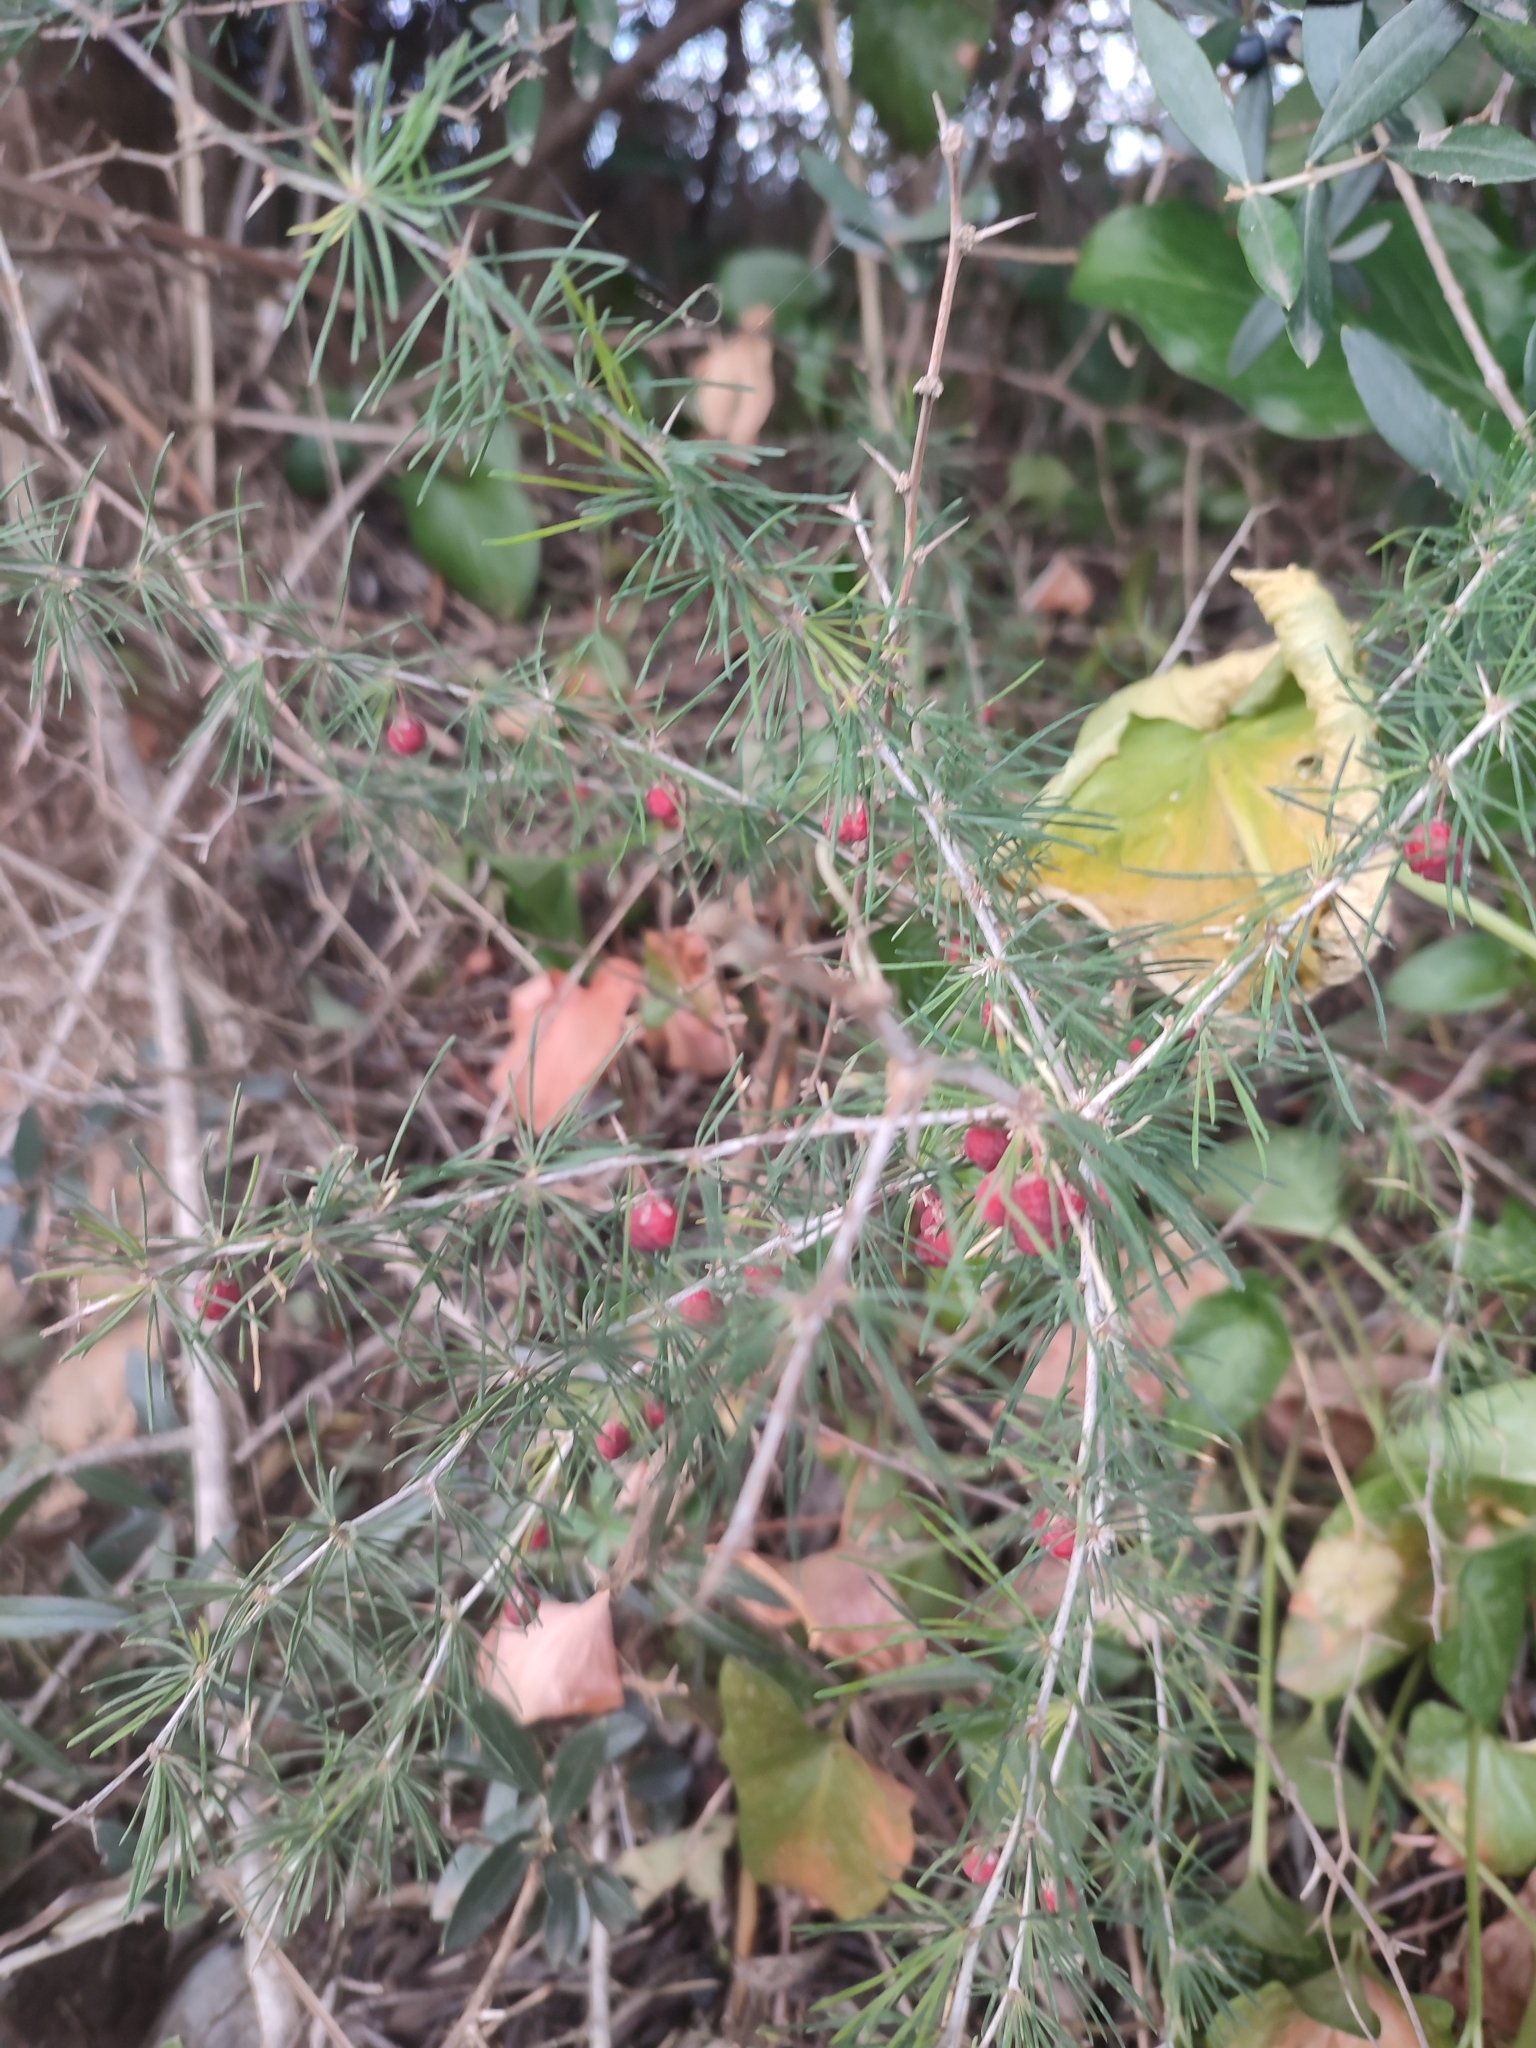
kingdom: Plantae
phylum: Tracheophyta
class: Liliopsida
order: Asparagales
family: Asparagaceae
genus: Asparagus
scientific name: Asparagus albus
